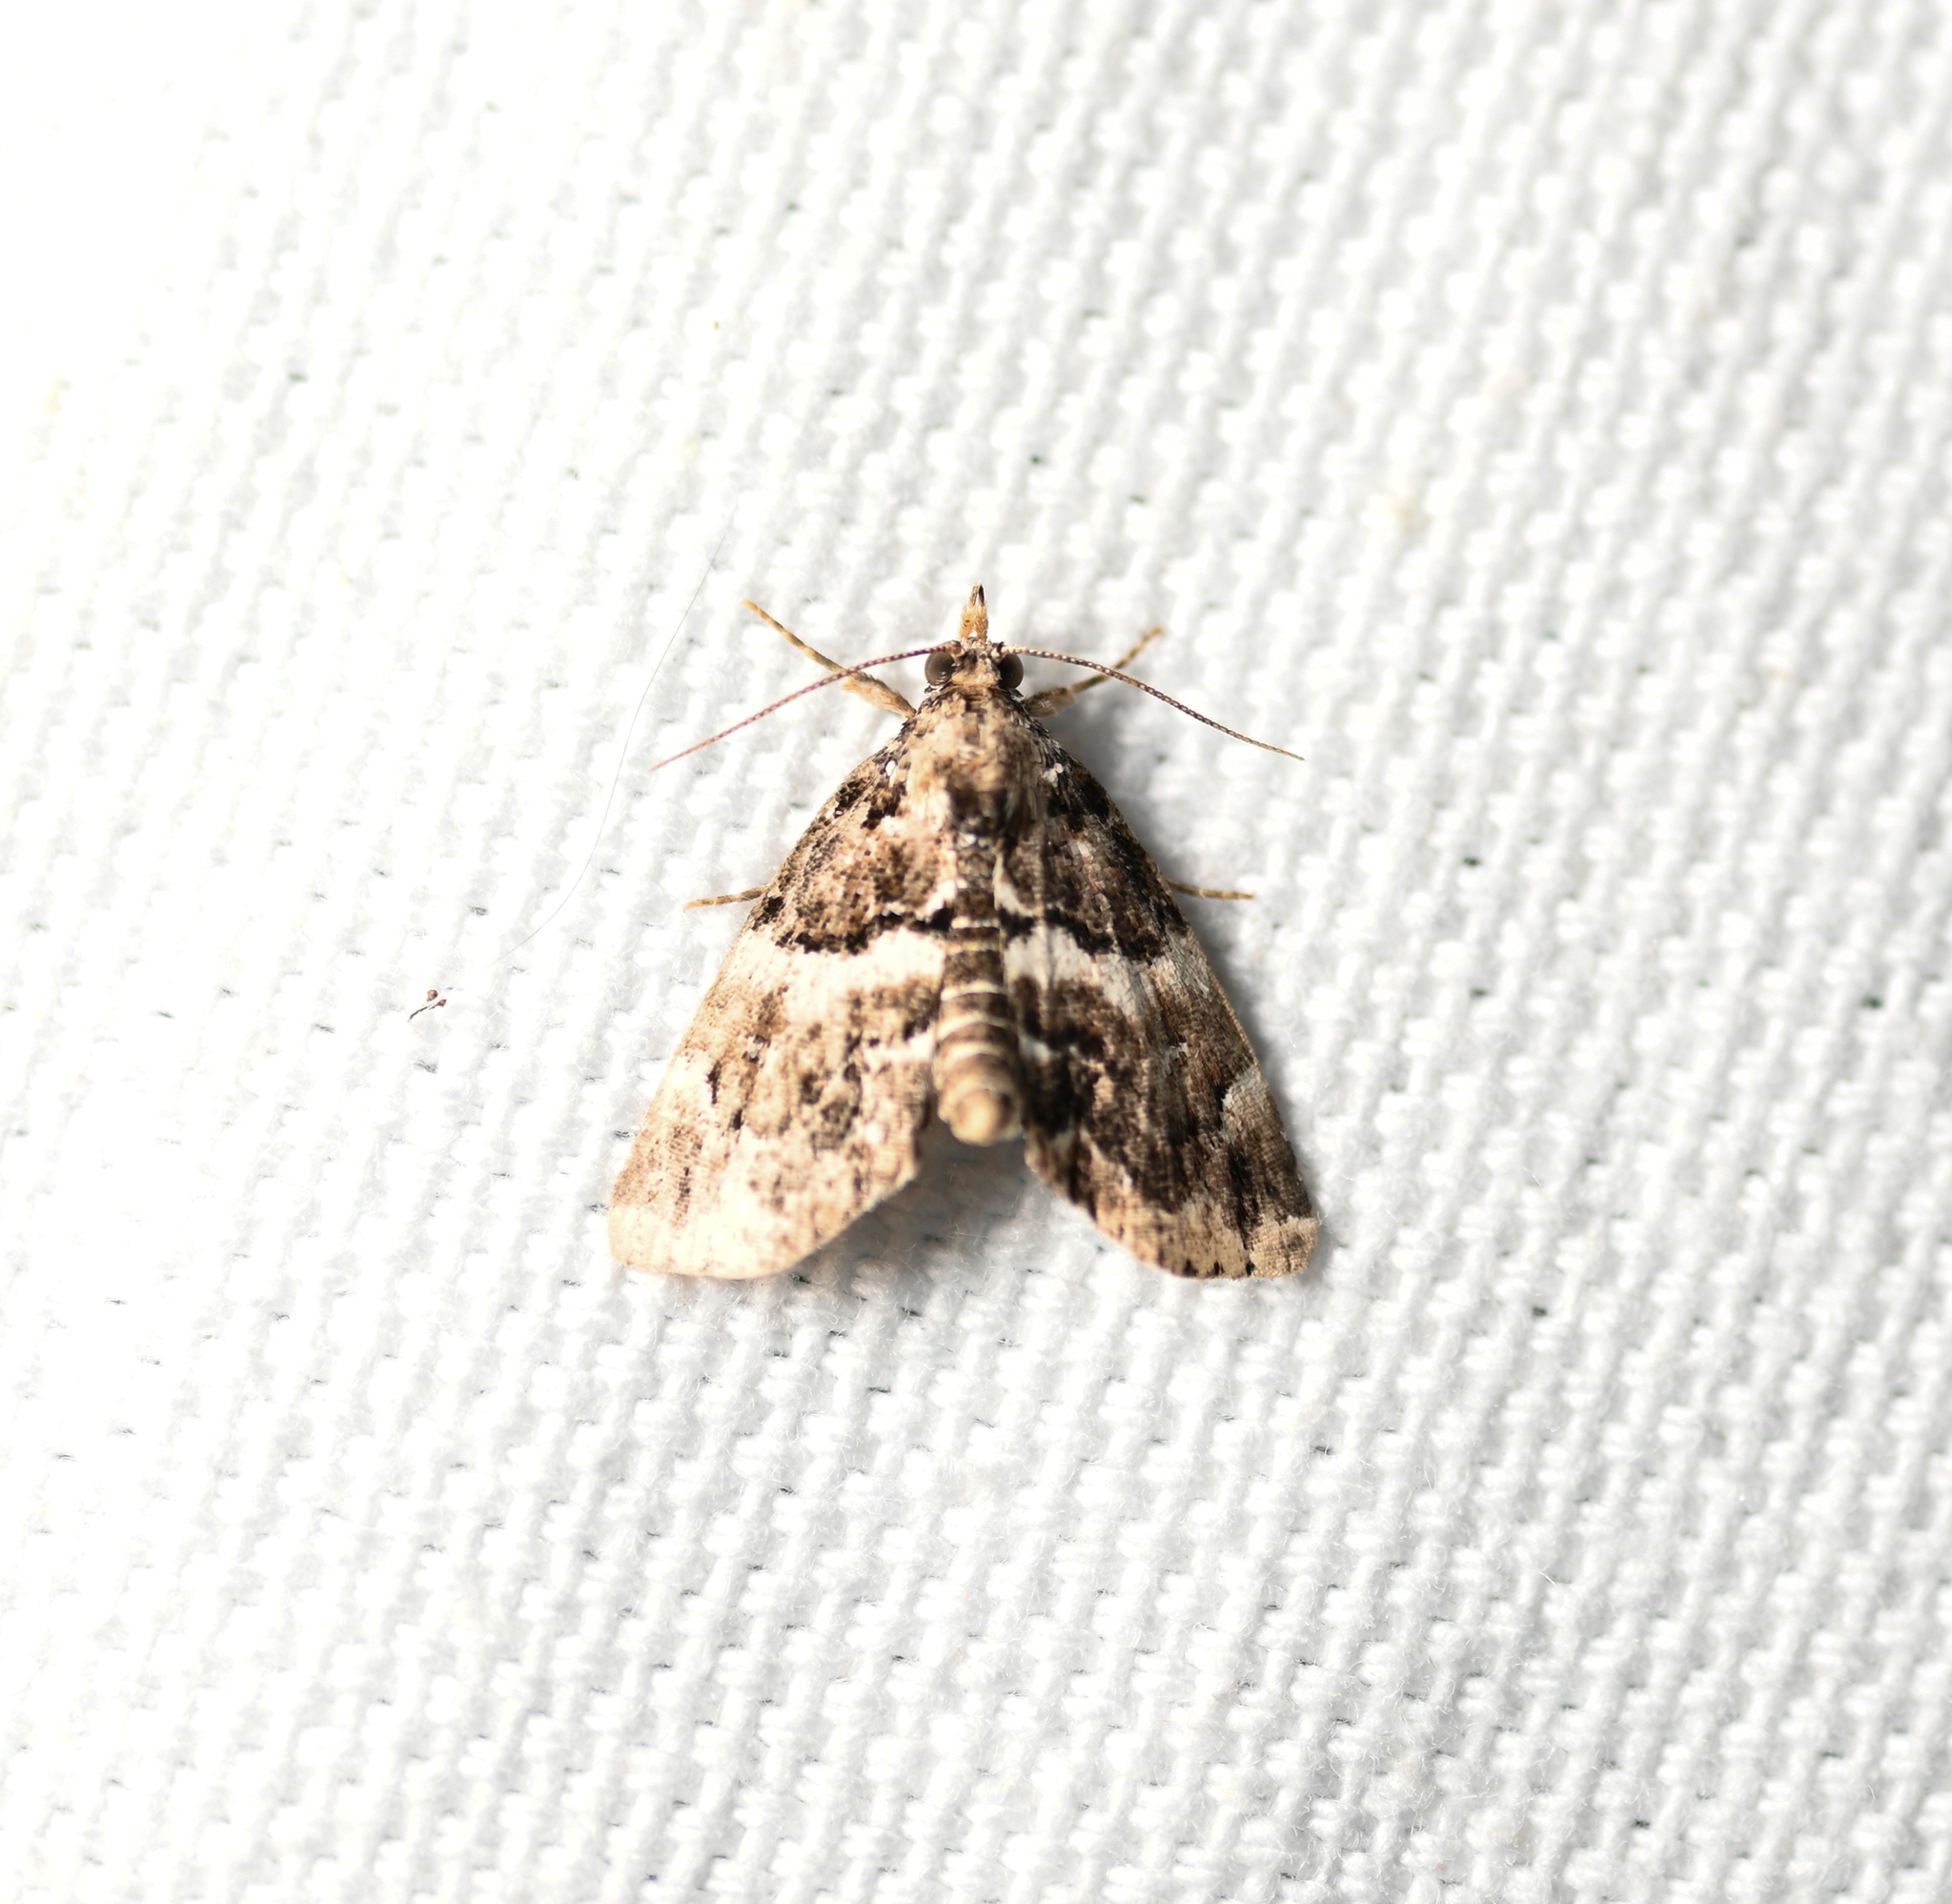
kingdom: Animalia
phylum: Arthropoda
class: Insecta
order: Lepidoptera
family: Erebidae
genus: Cutina
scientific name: Cutina distincta
